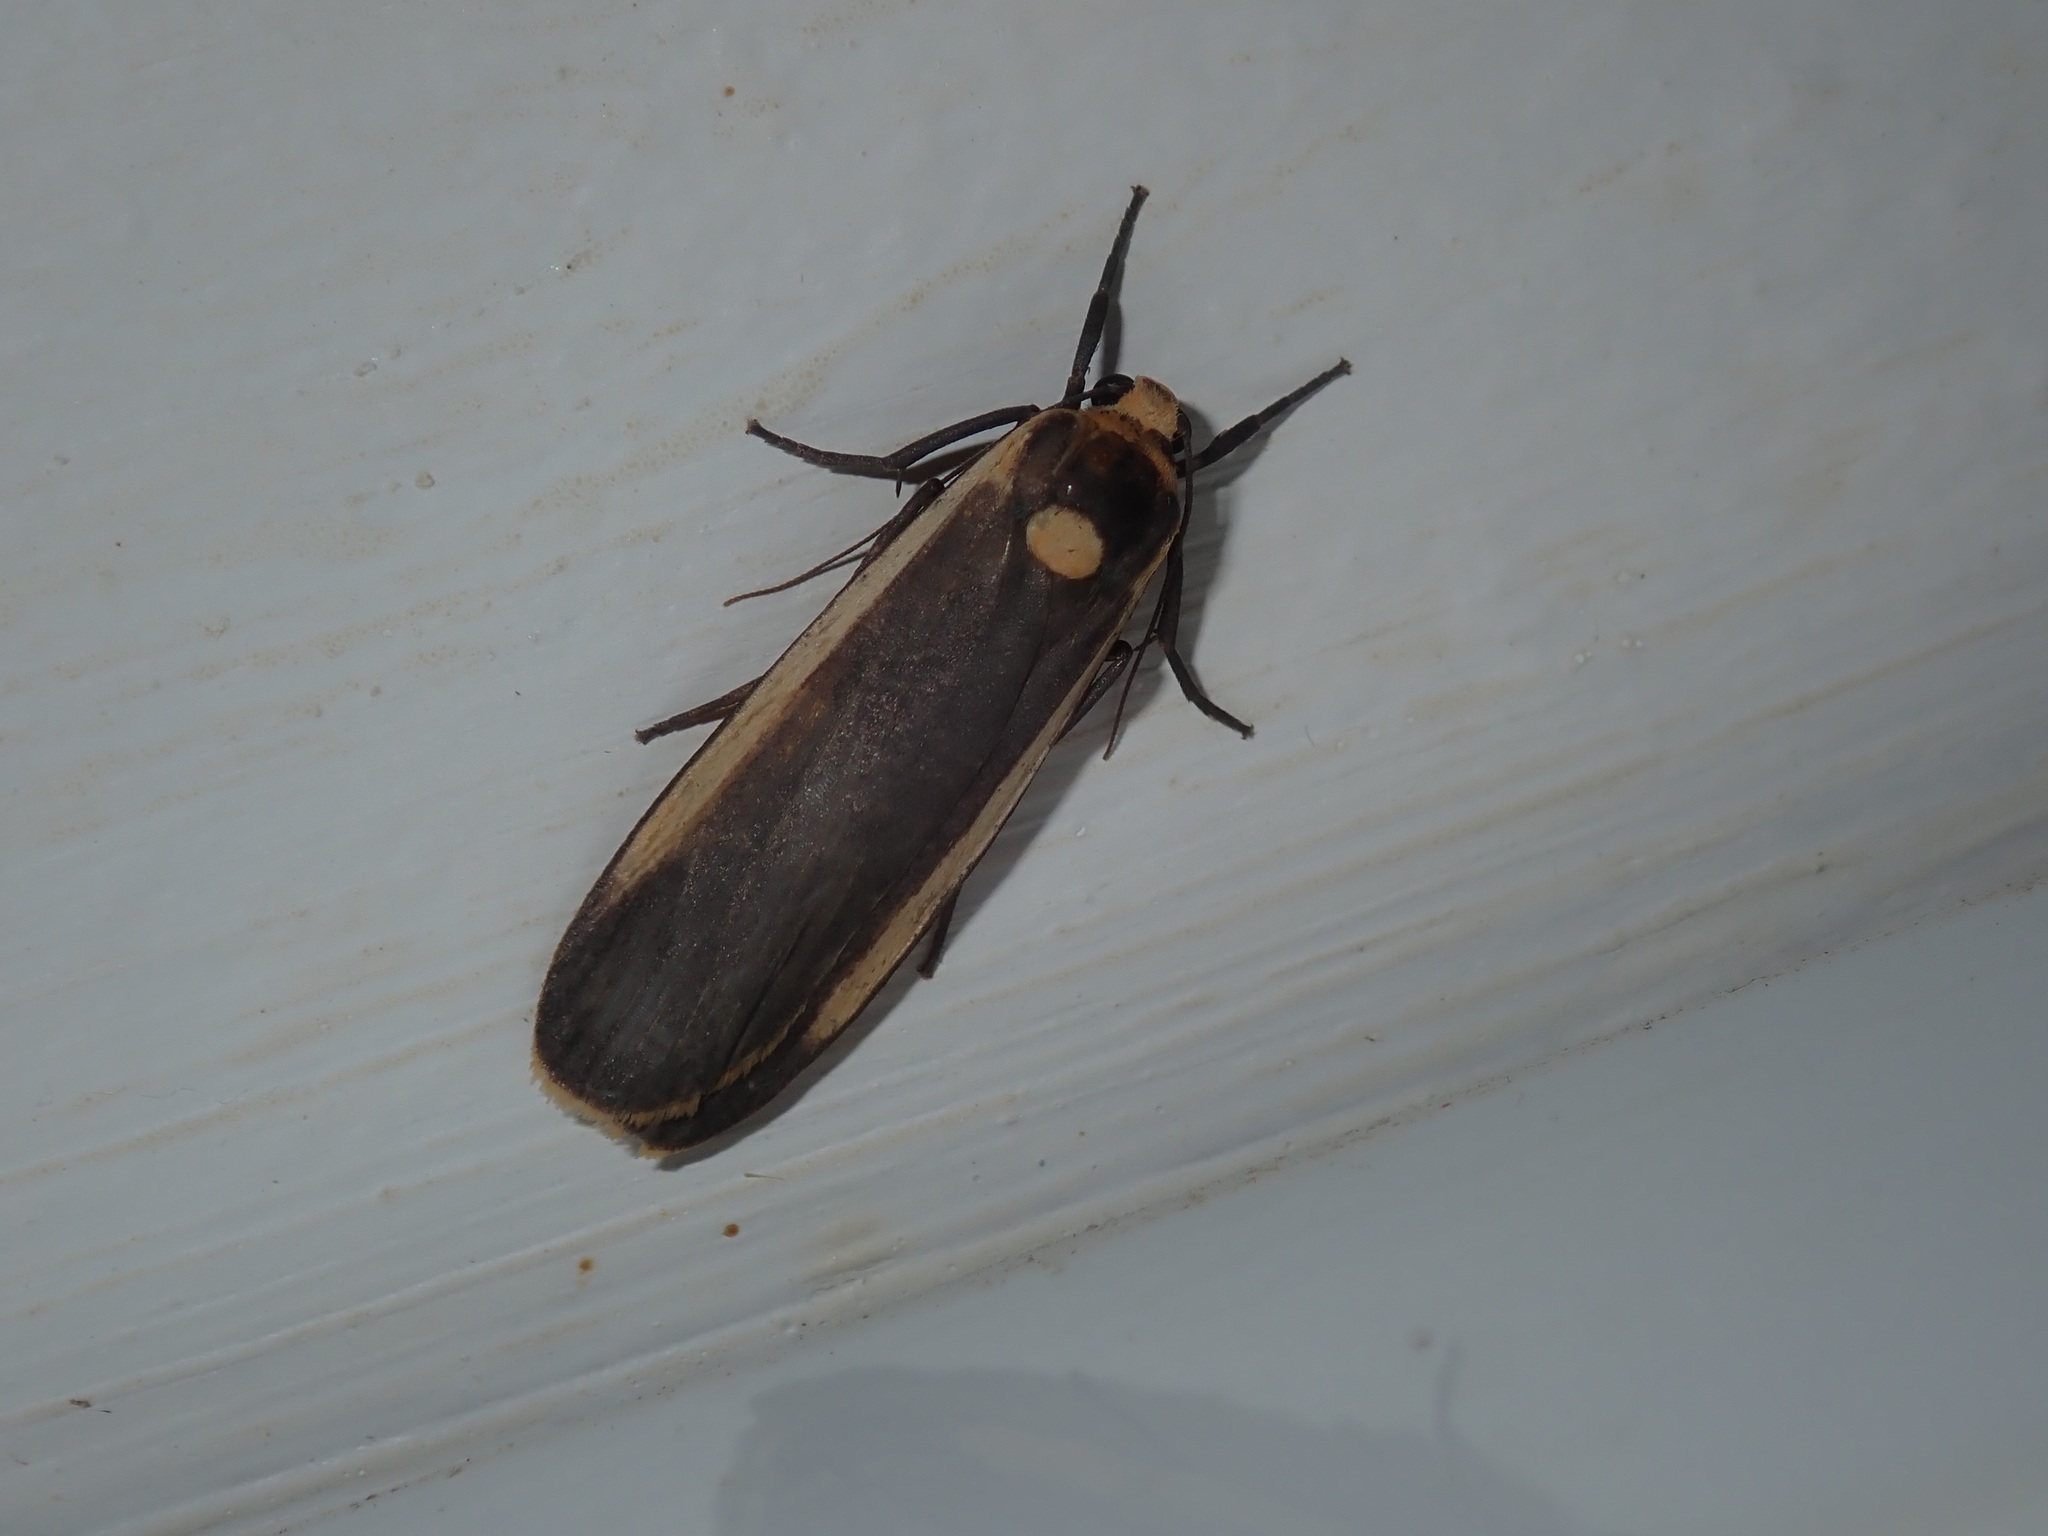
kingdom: Animalia
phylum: Arthropoda
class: Insecta
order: Lepidoptera
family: Erebidae
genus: Brunia
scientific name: Brunia replana
